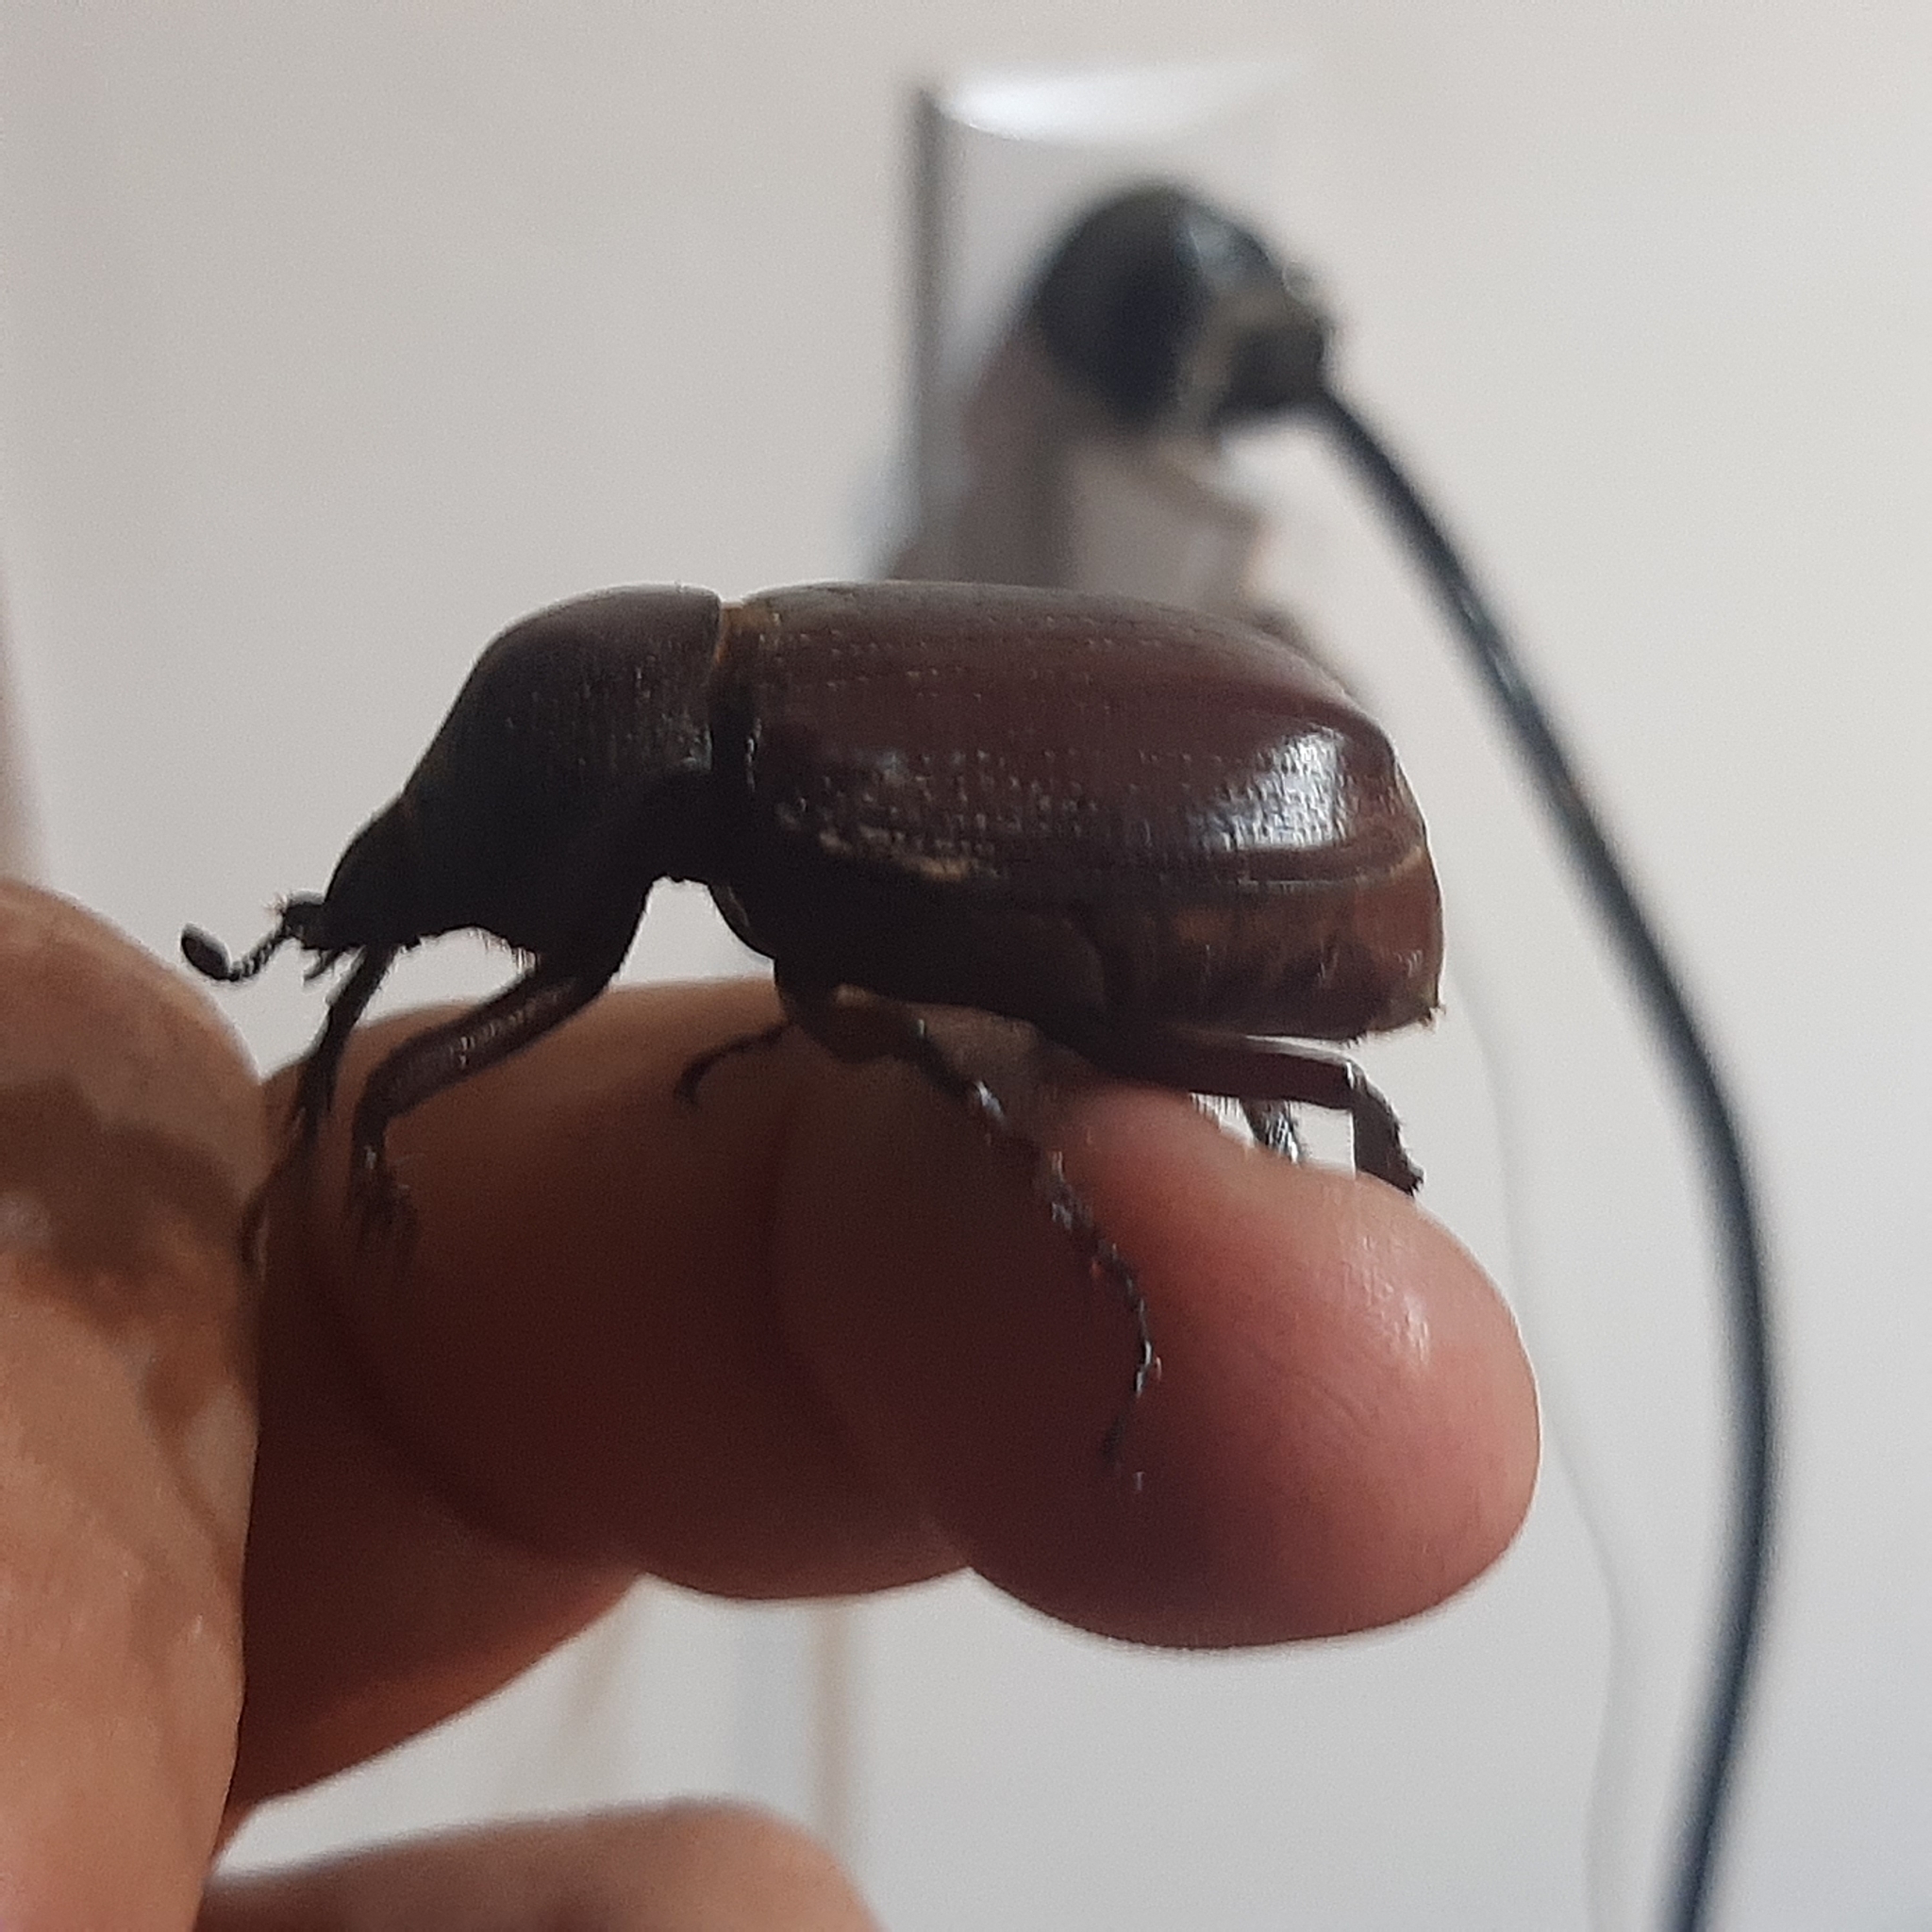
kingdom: Animalia
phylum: Arthropoda
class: Insecta
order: Coleoptera
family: Scarabaeidae
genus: Coelosis
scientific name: Coelosis biloba
